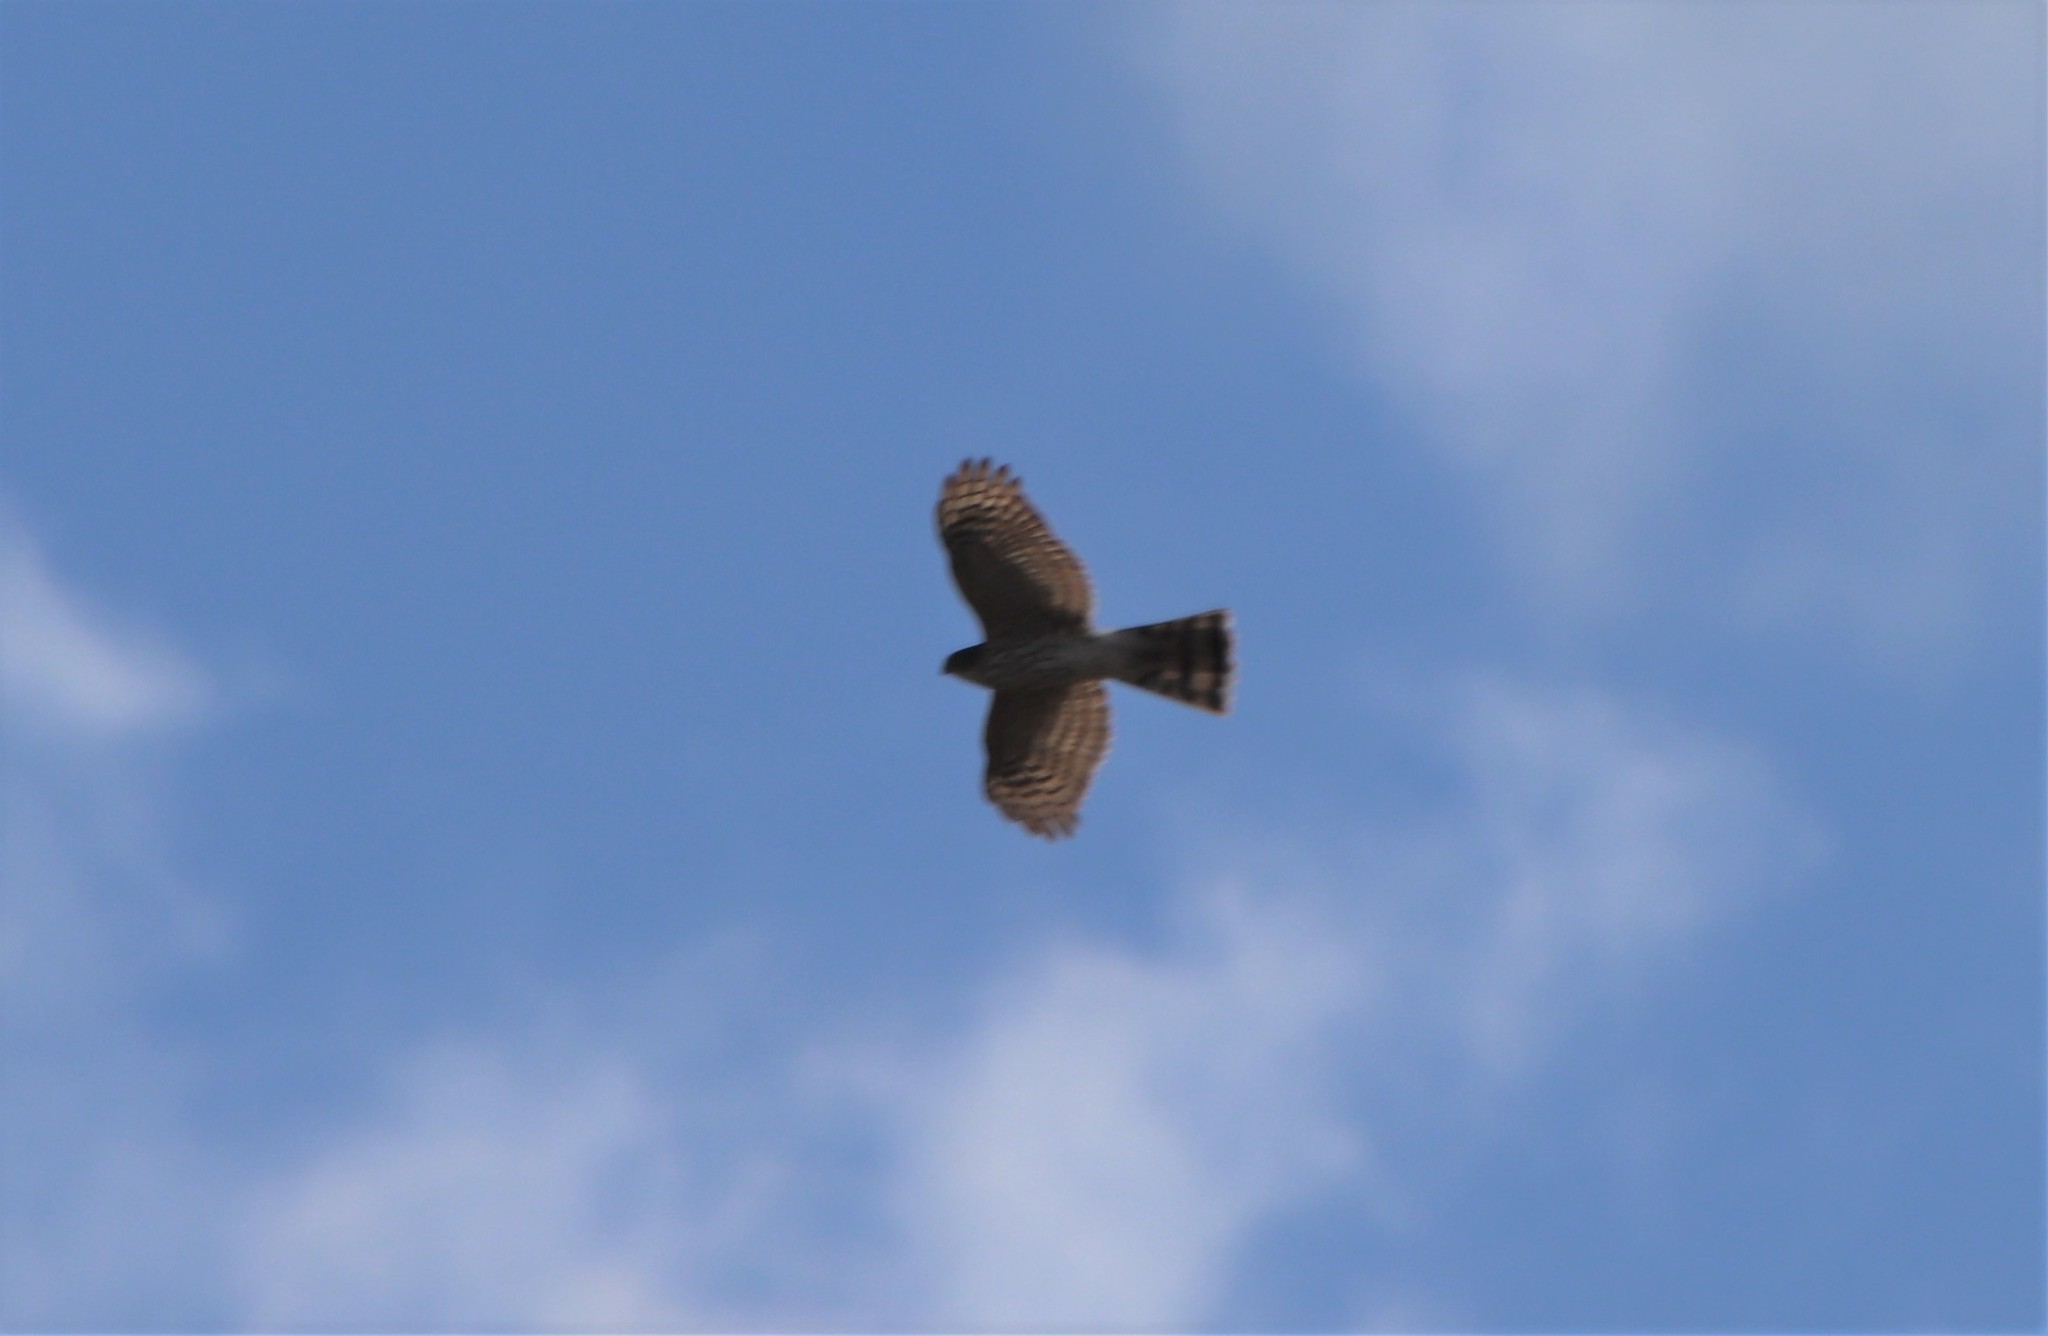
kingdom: Animalia
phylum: Chordata
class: Aves
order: Accipitriformes
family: Accipitridae
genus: Accipiter
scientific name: Accipiter striatus
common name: Sharp-shinned hawk
